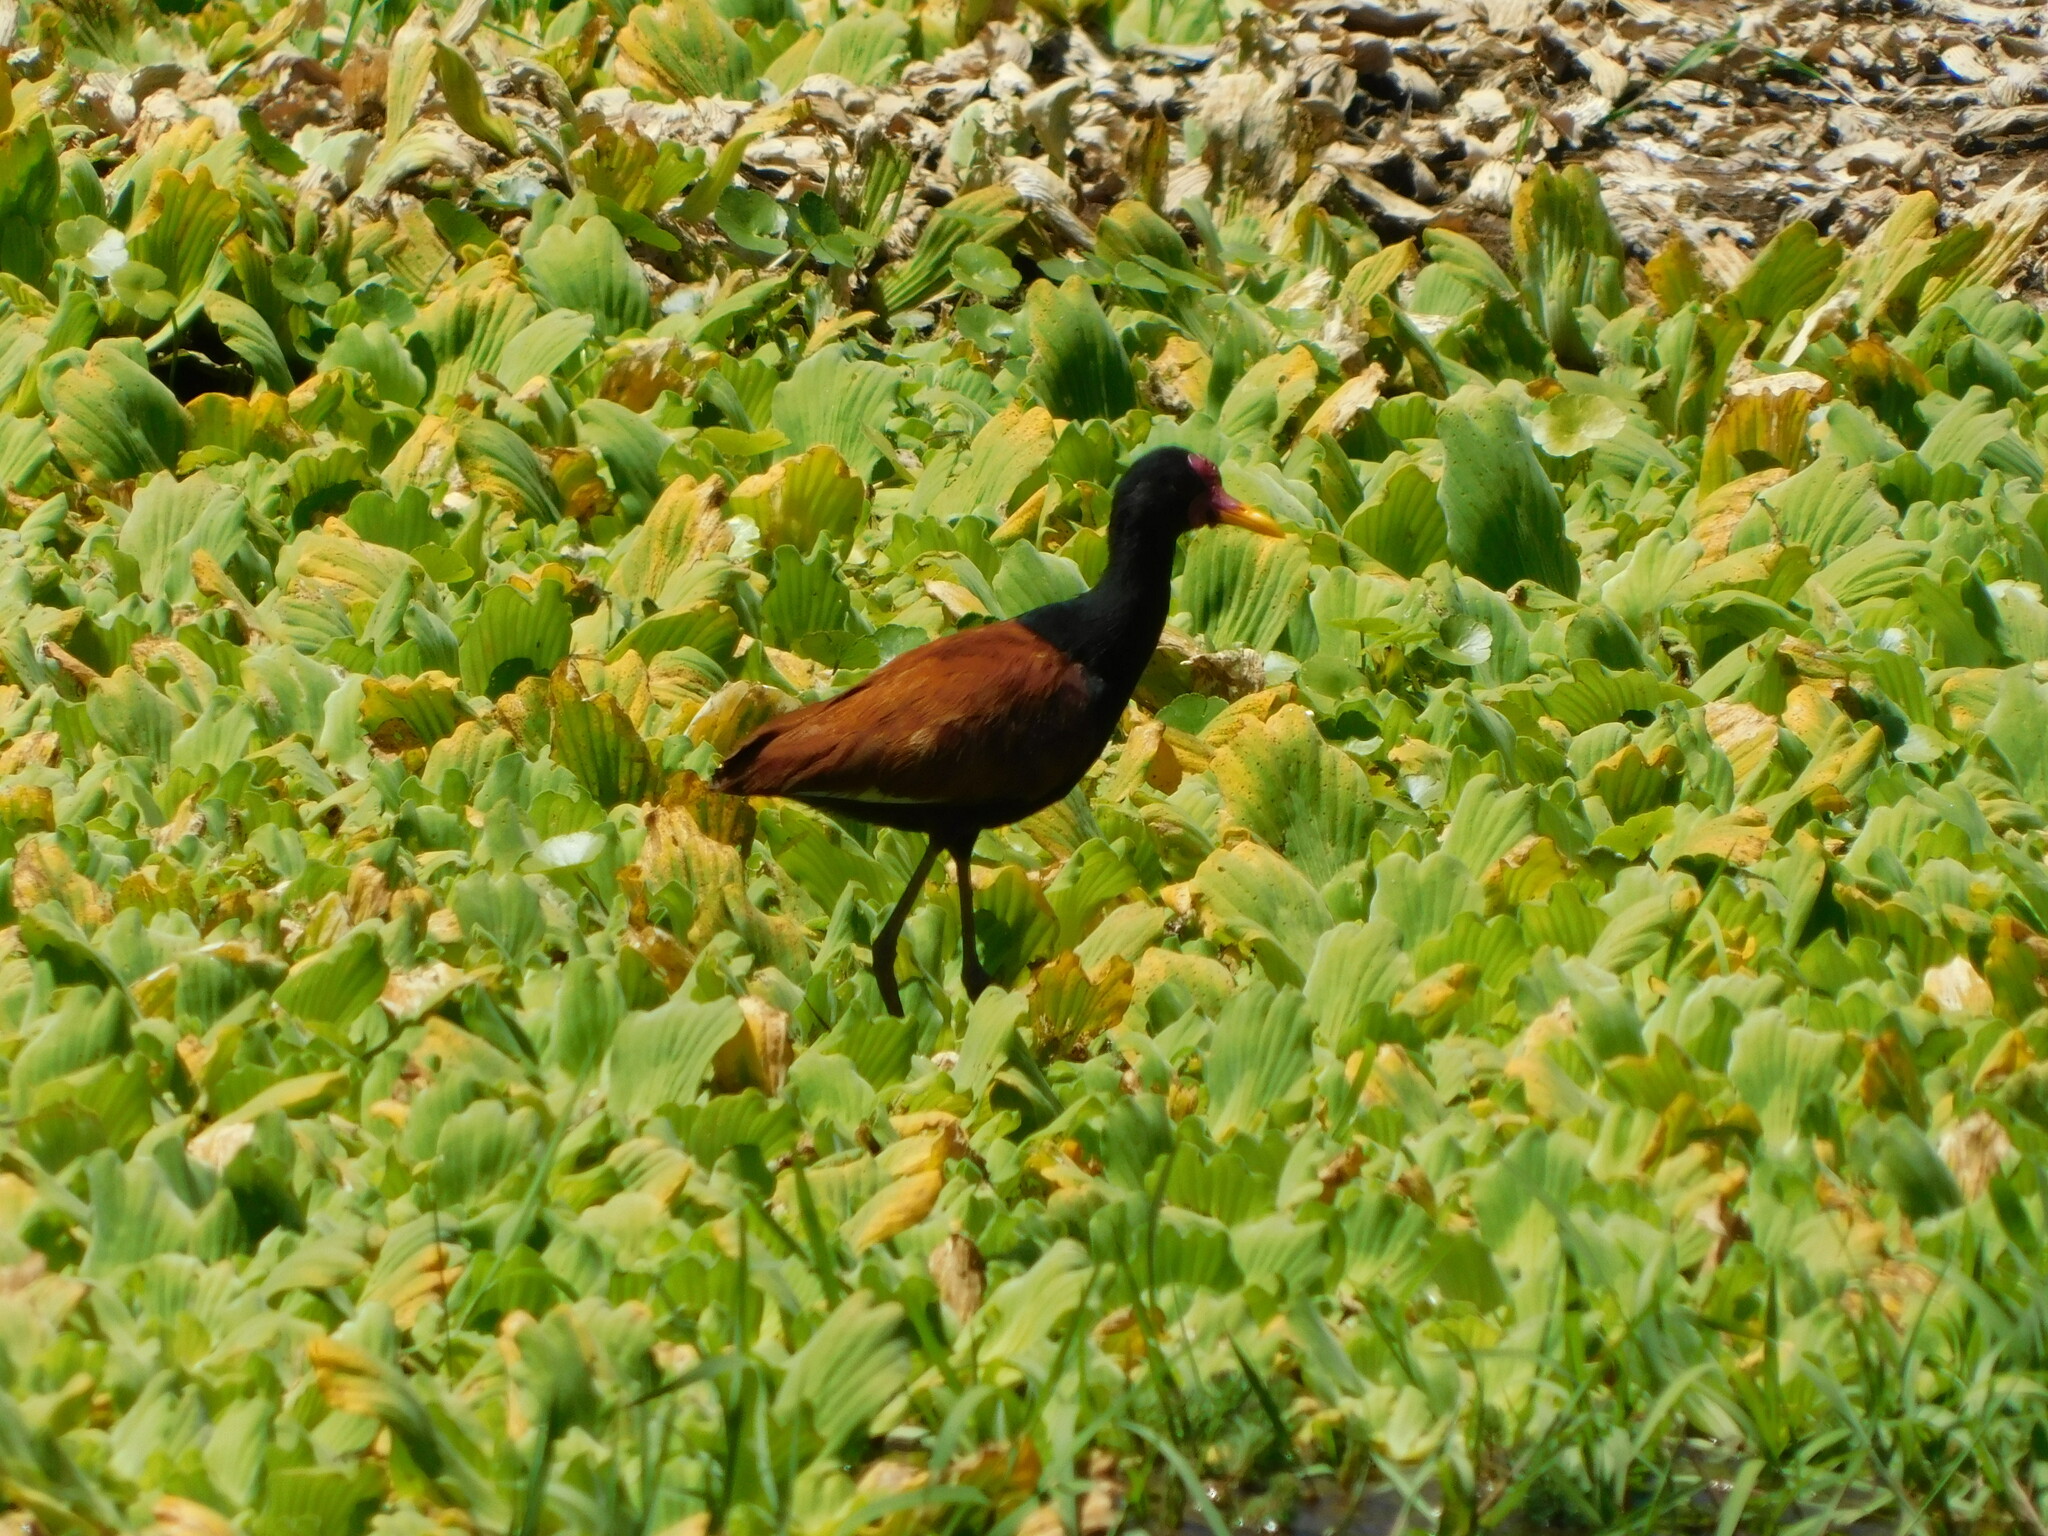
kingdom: Animalia
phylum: Chordata
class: Aves
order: Charadriiformes
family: Jacanidae
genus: Jacana
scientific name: Jacana jacana
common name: Wattled jacana
